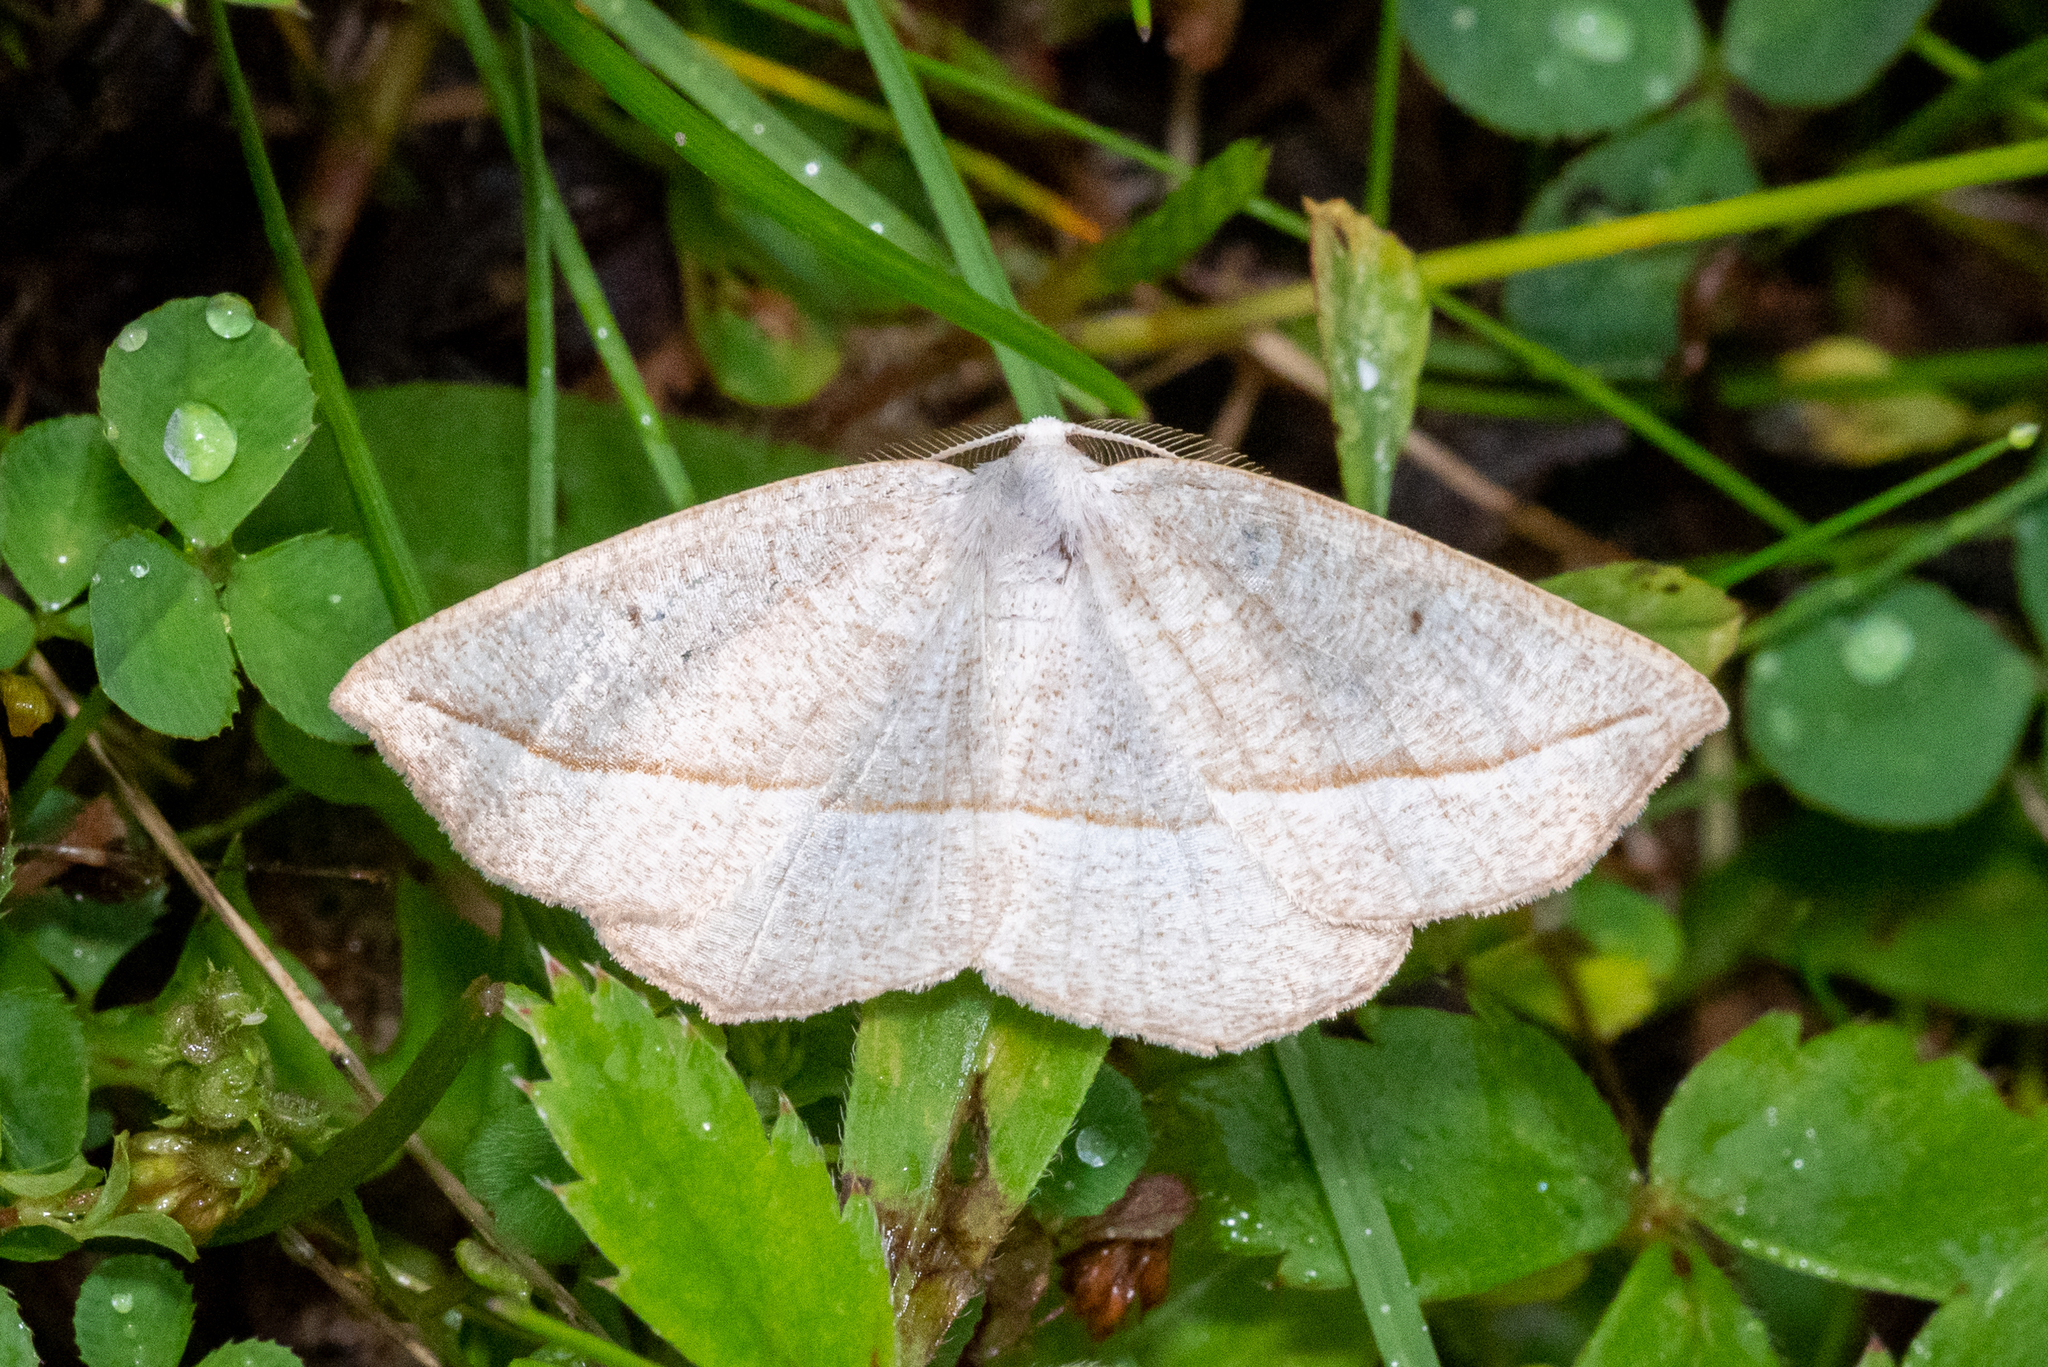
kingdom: Animalia
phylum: Arthropoda
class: Insecta
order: Lepidoptera
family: Geometridae
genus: Eusarca
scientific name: Eusarca confusaria
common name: Confused eusarca
